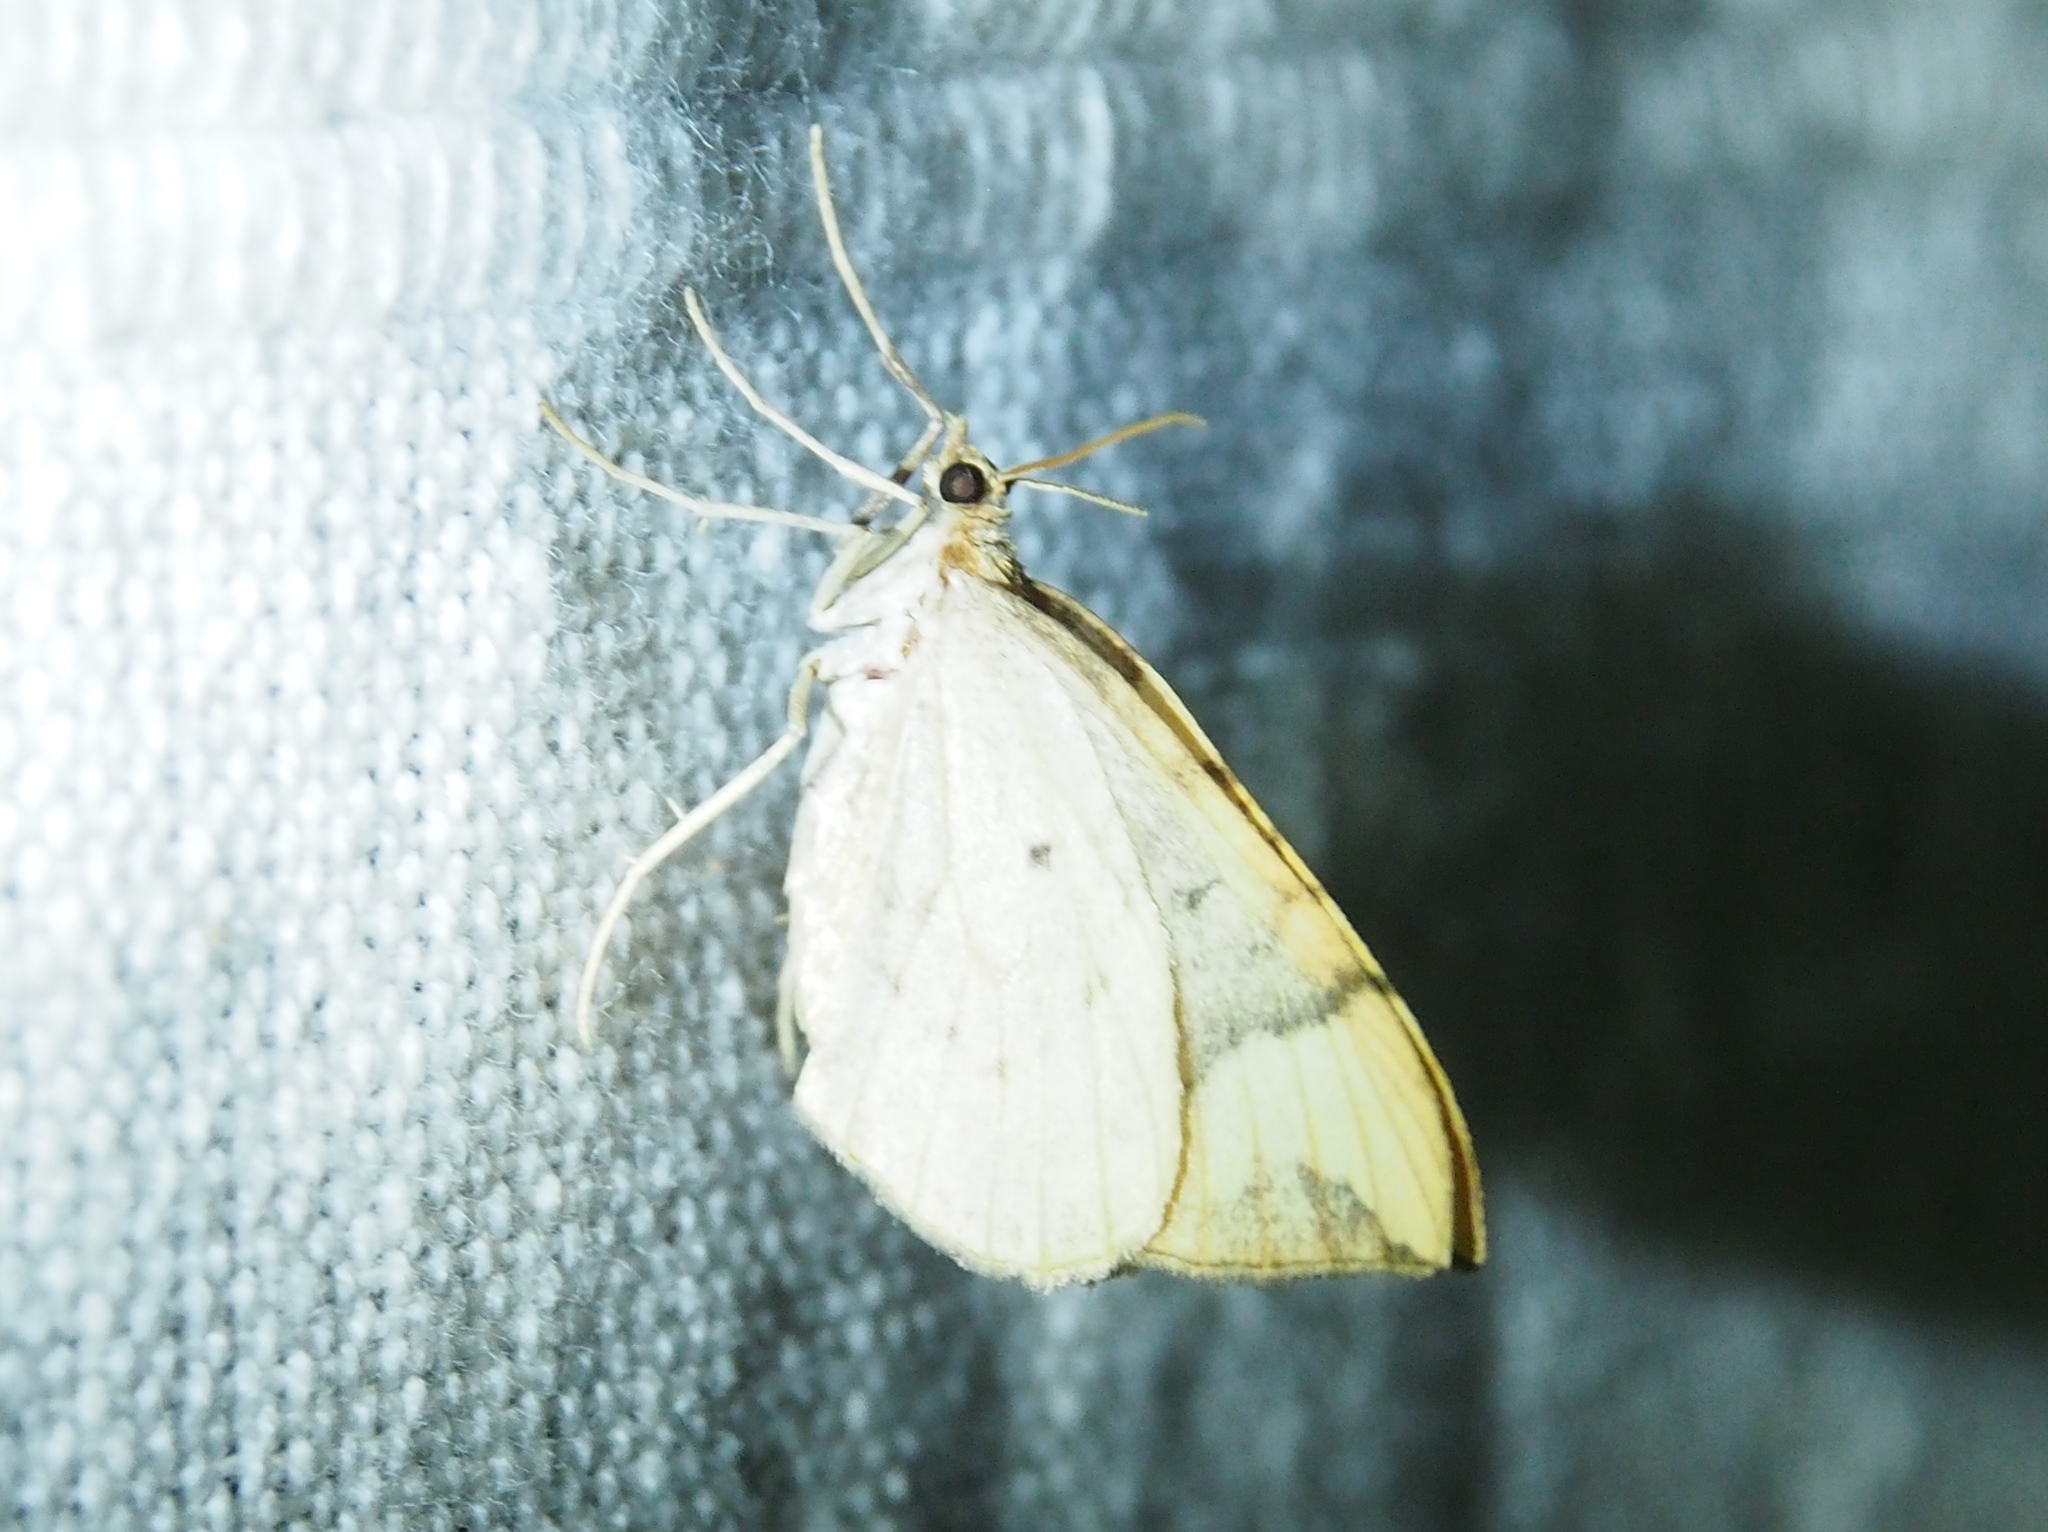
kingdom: Animalia
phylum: Arthropoda
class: Insecta
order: Lepidoptera
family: Geometridae
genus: Eulithis
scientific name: Eulithis populata
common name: Northern spinach
